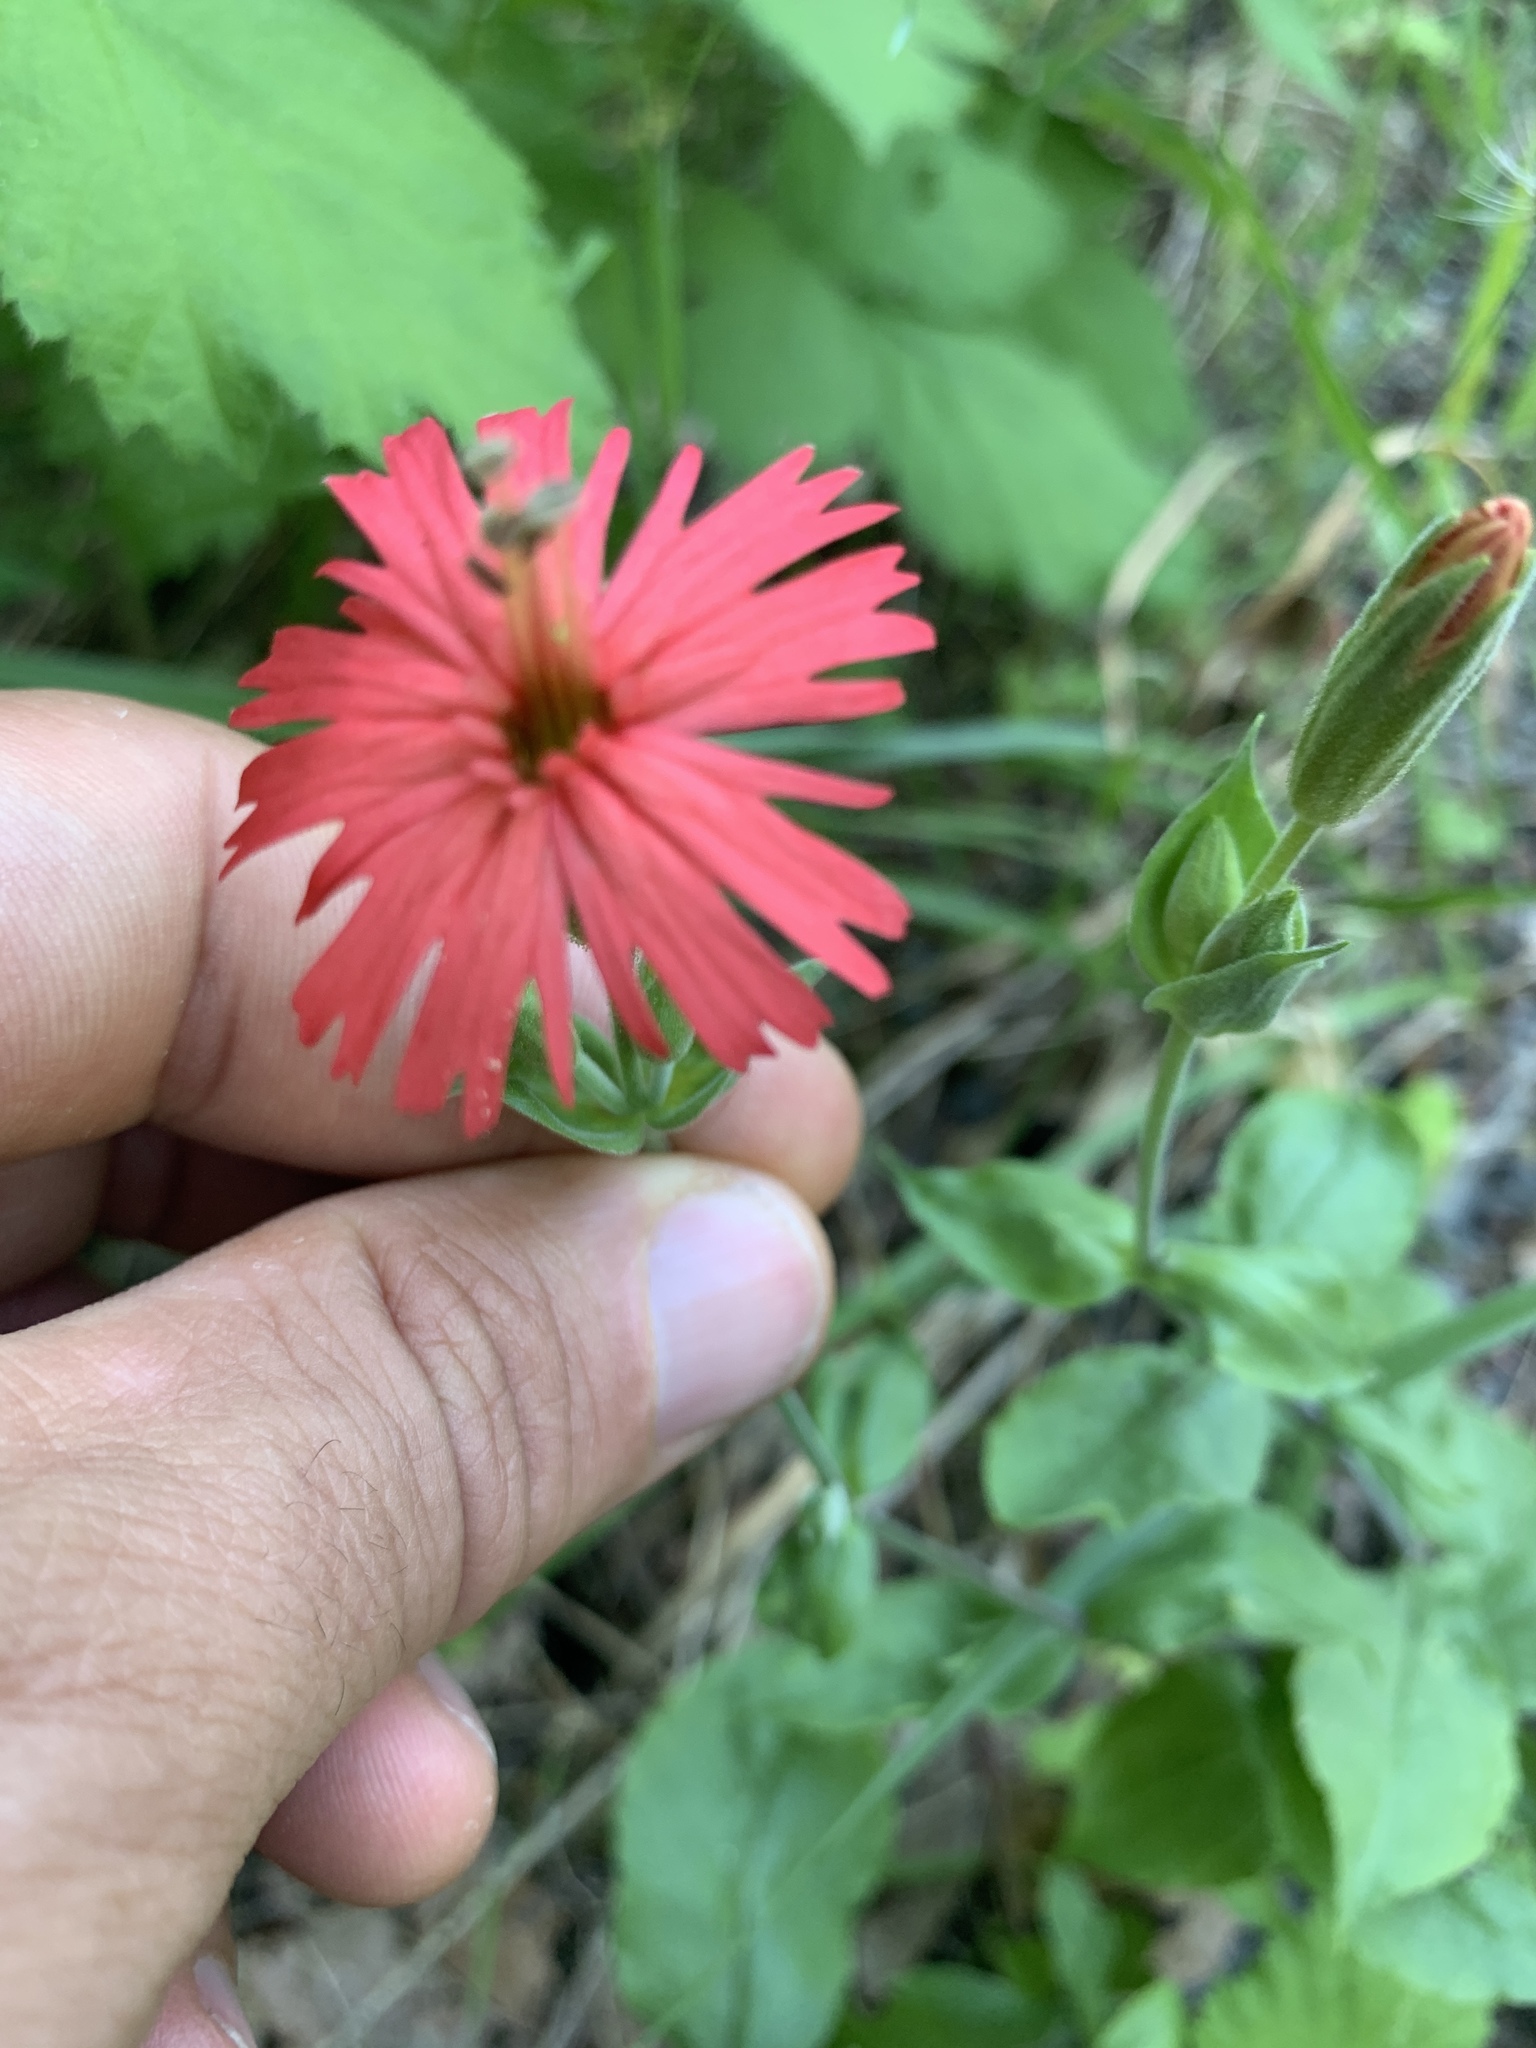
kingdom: Plantae
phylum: Tracheophyta
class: Magnoliopsida
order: Caryophyllales
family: Caryophyllaceae
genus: Silene
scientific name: Silene laciniata
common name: Indian-pink
